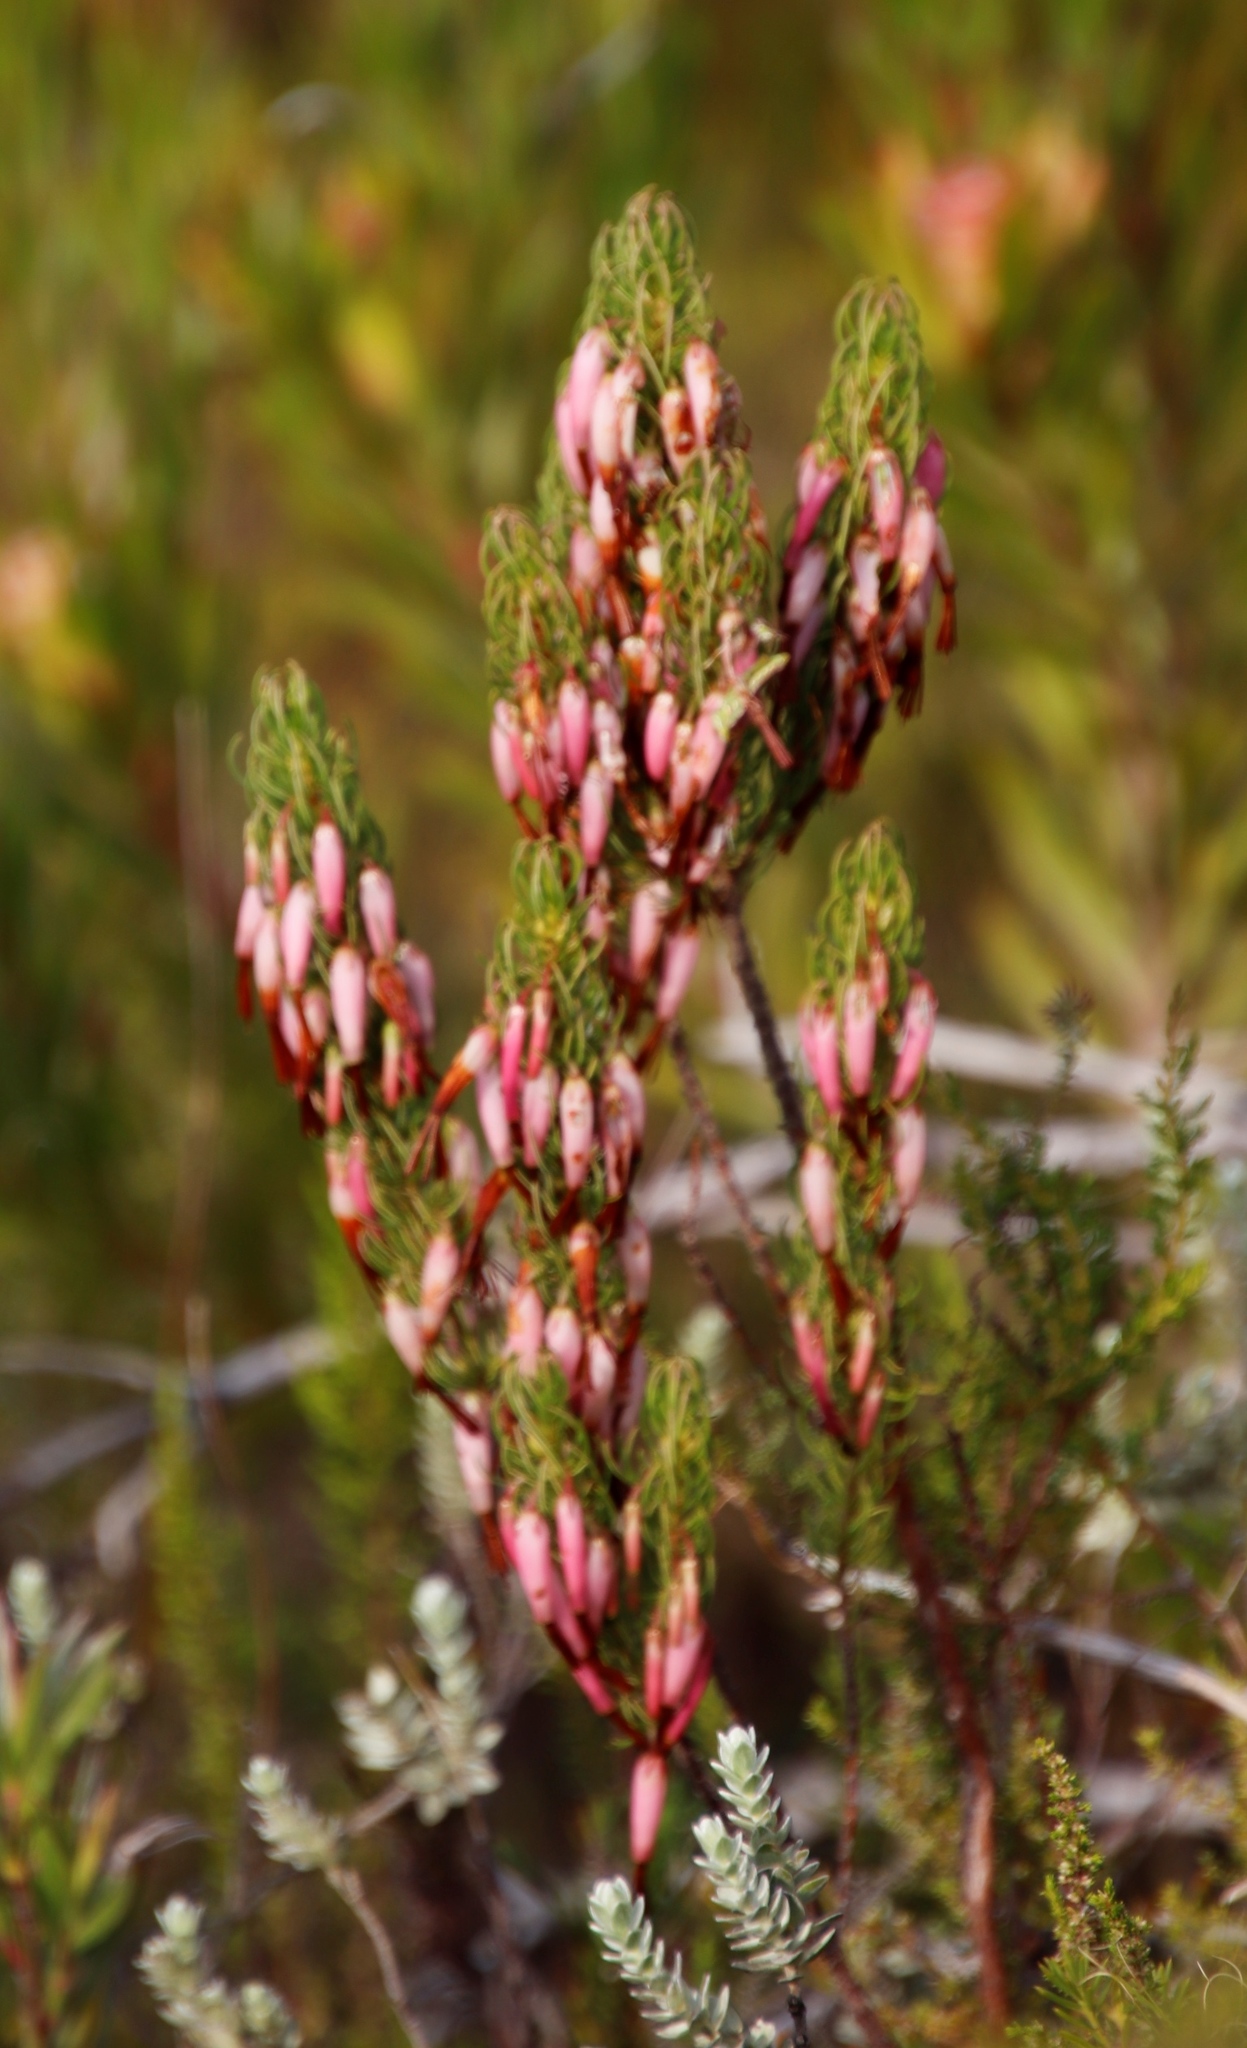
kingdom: Plantae
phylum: Tracheophyta
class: Magnoliopsida
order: Ericales
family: Ericaceae
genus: Erica
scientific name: Erica plukenetii
